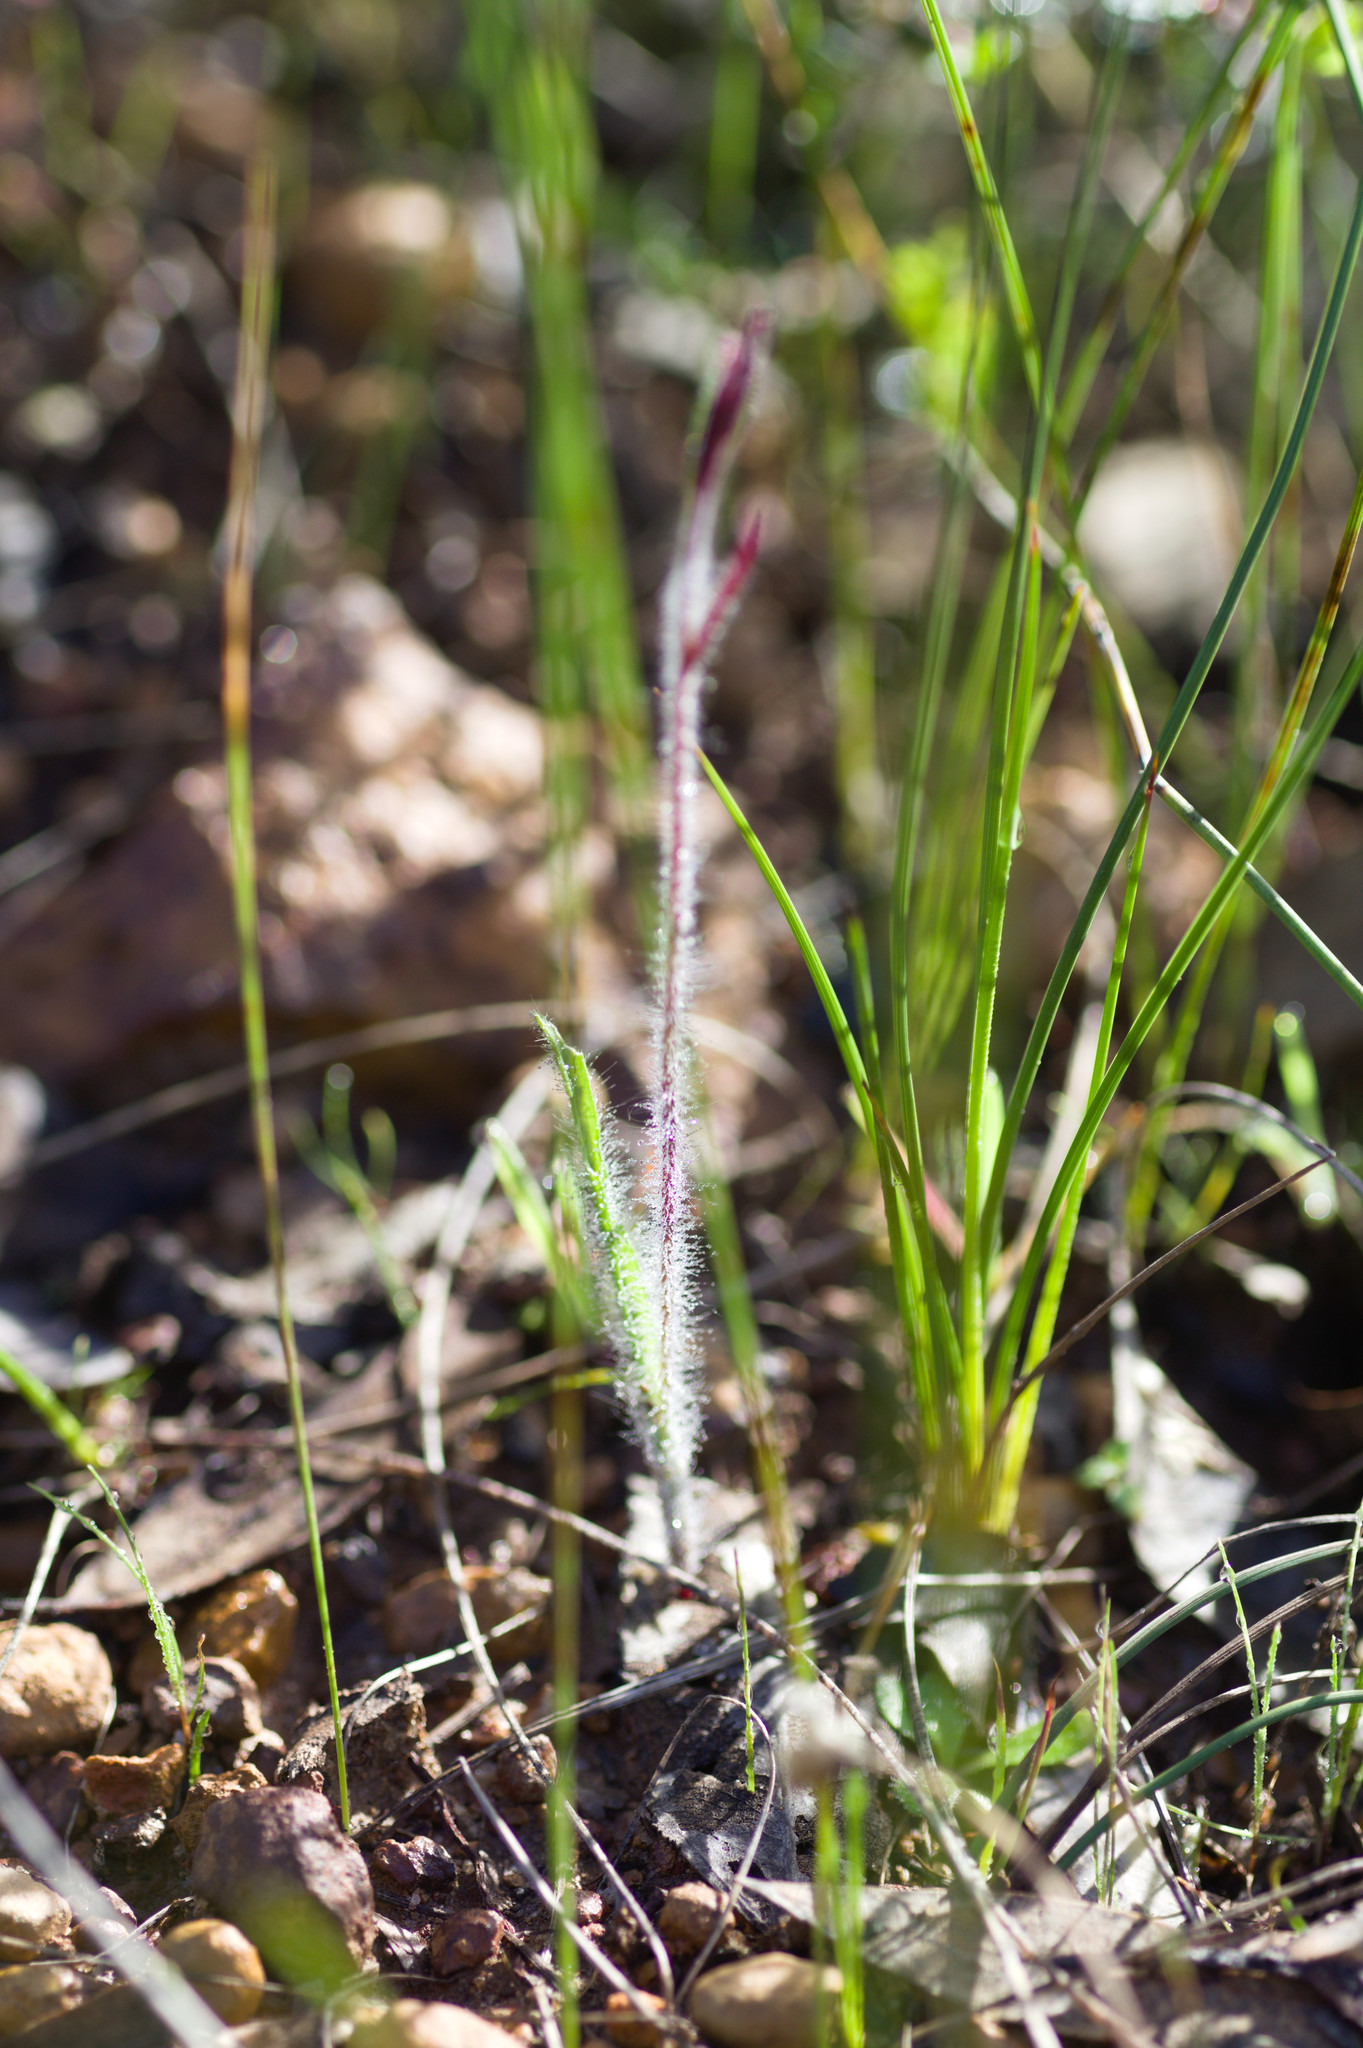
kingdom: Plantae
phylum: Tracheophyta
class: Liliopsida
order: Asparagales
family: Orchidaceae
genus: Caladenia
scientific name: Caladenia filifera
